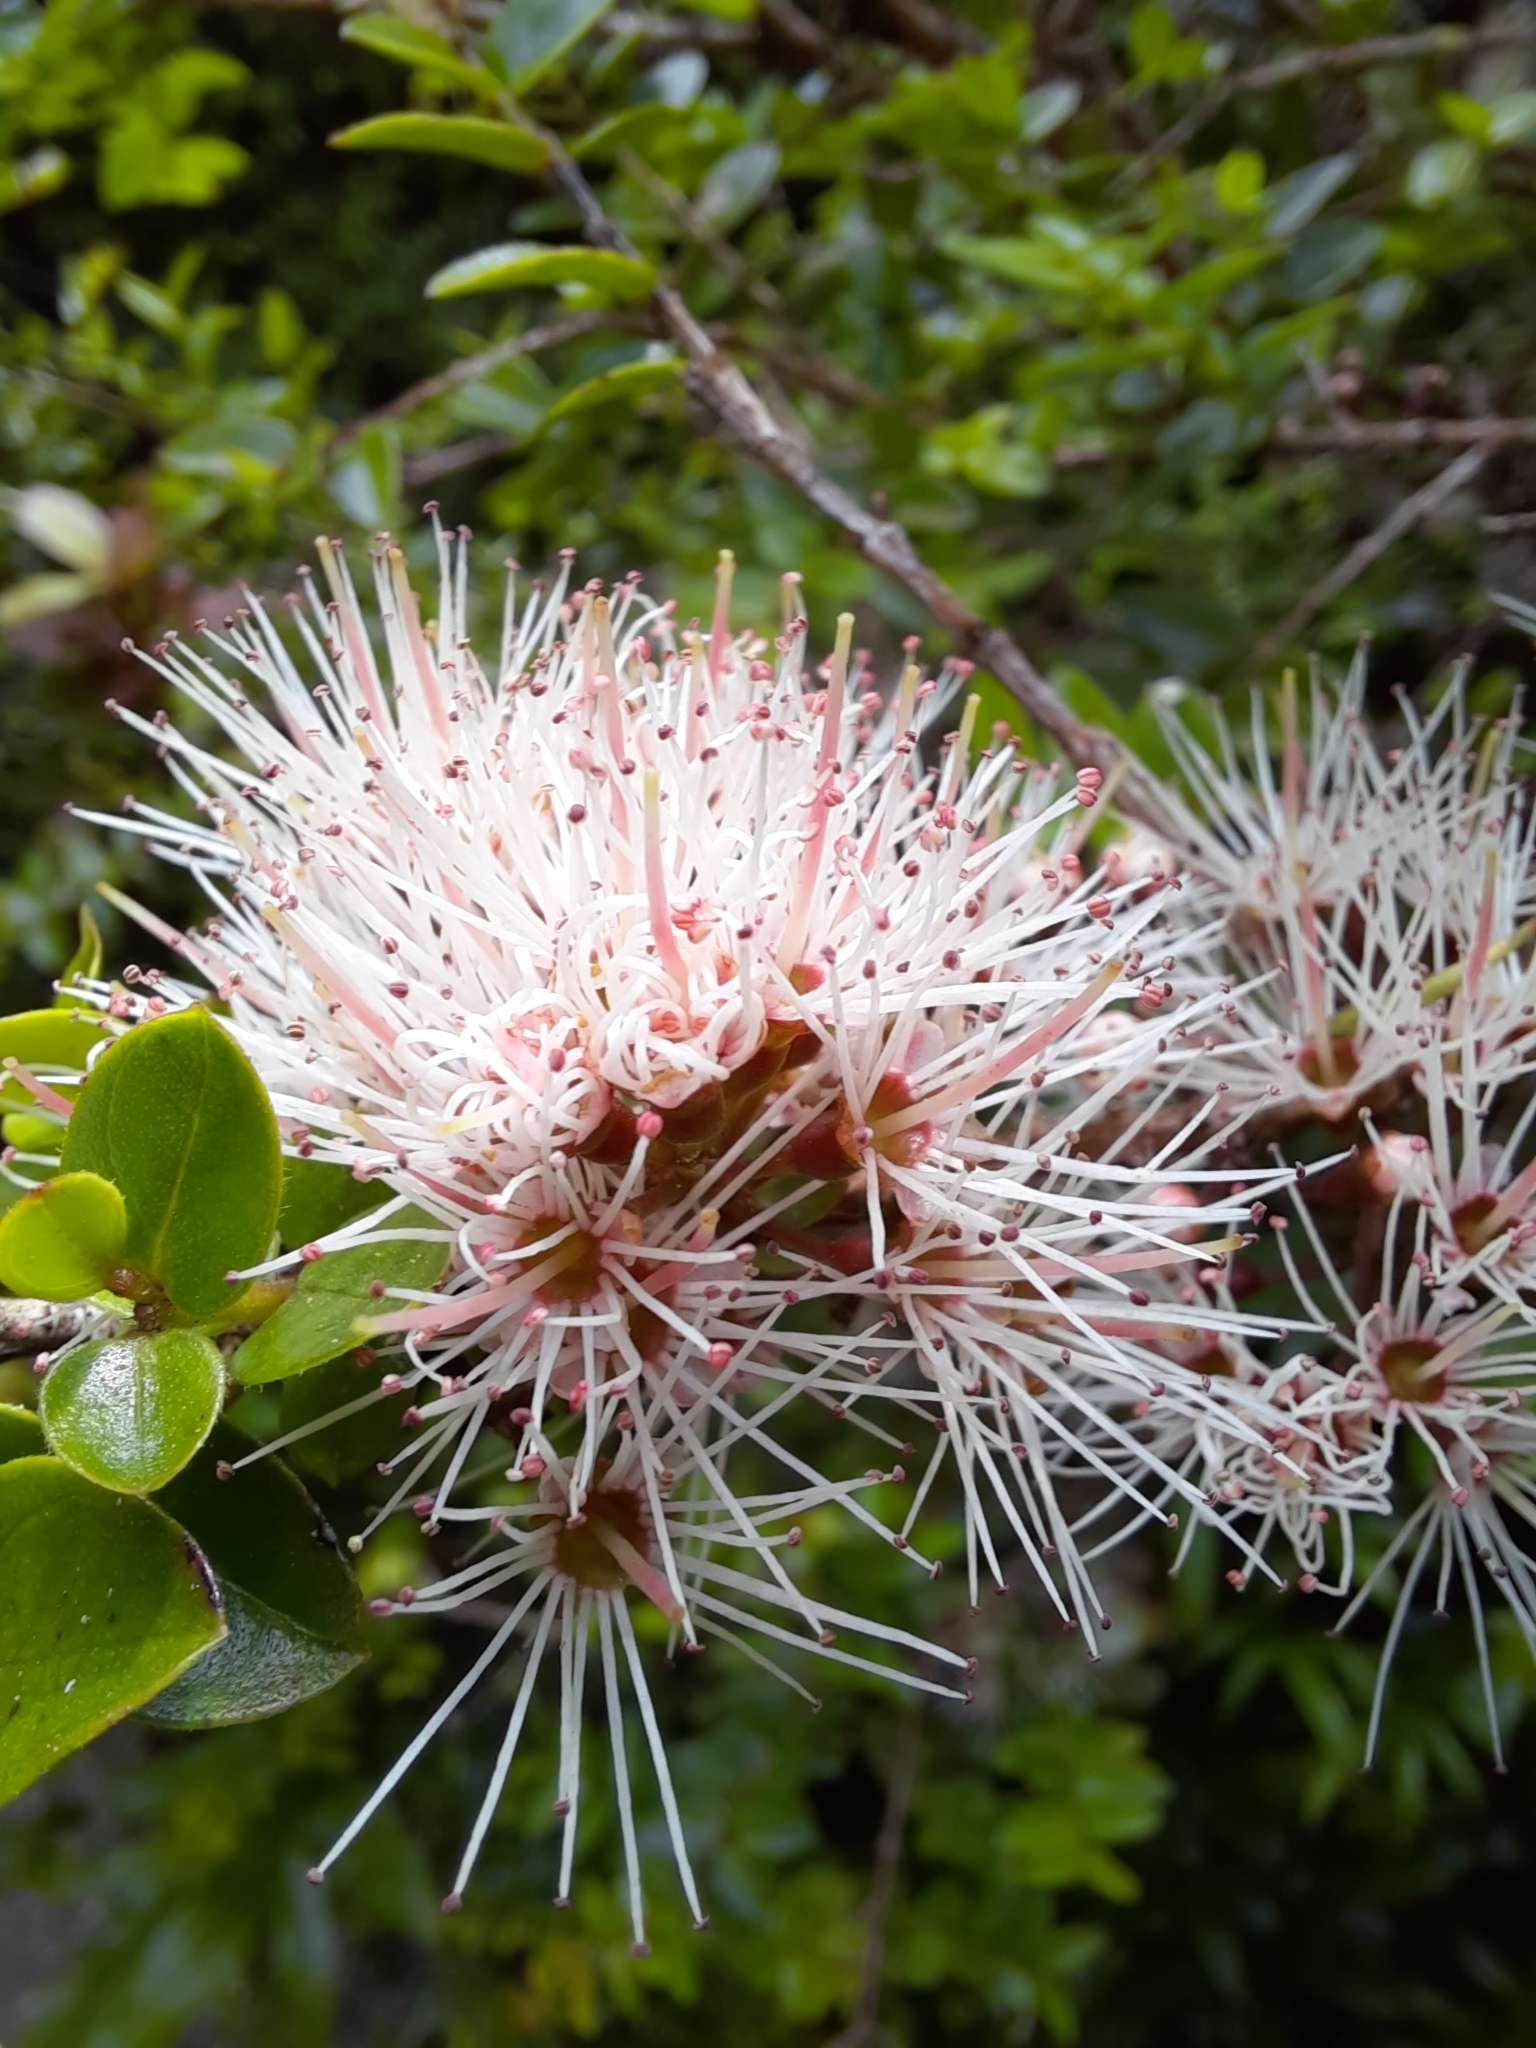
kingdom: Plantae
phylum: Tracheophyta
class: Magnoliopsida
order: Myrtales
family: Myrtaceae
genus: Metrosideros
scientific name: Metrosideros diffusa
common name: Small ratavine
